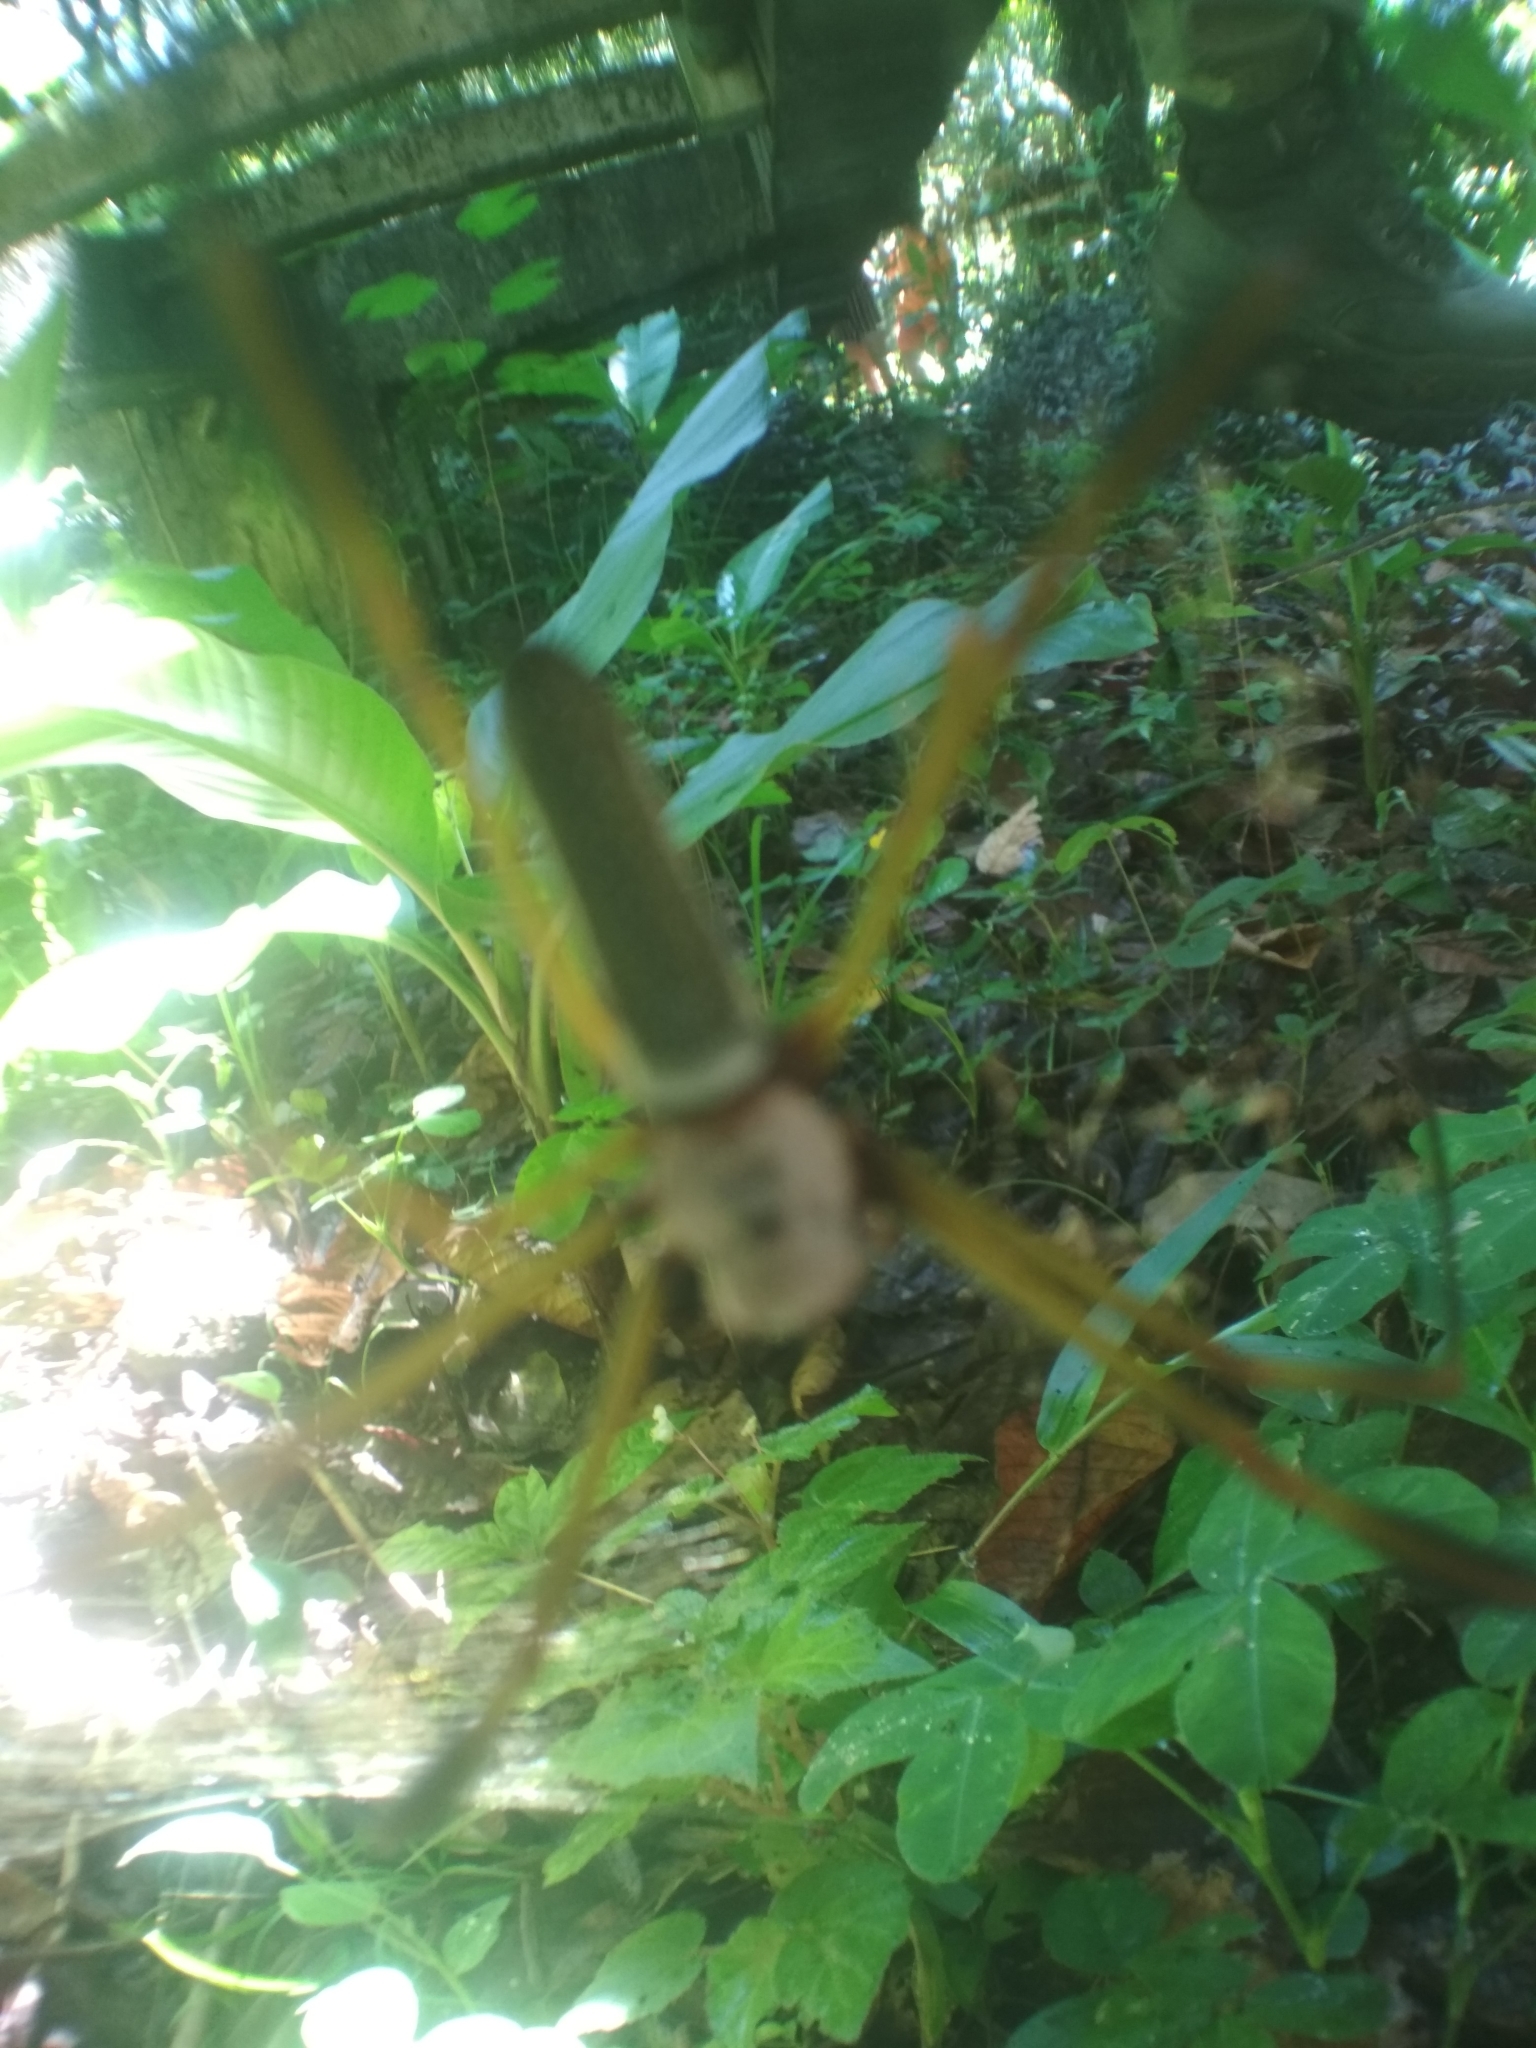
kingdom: Animalia
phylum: Arthropoda
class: Arachnida
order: Araneae
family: Araneidae
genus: Trichonephila
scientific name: Trichonephila clavipes
